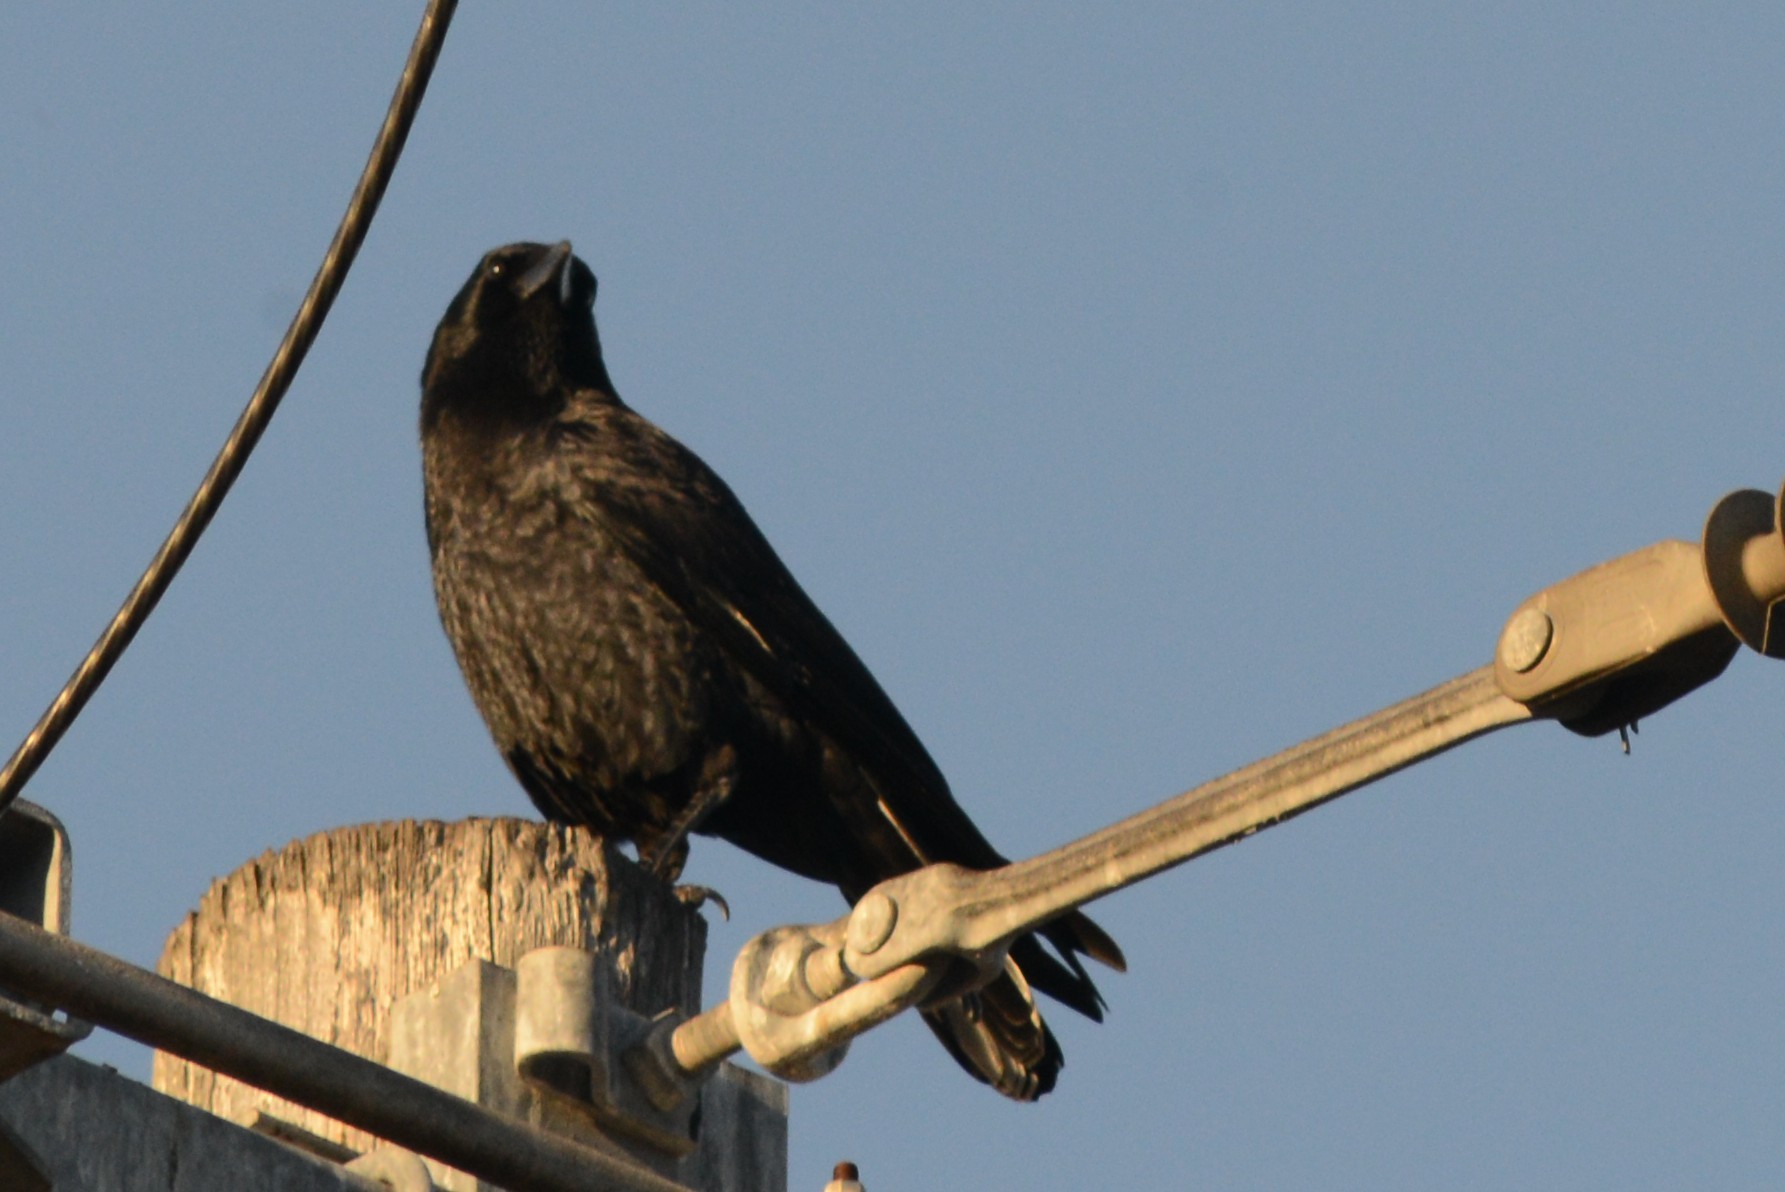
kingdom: Animalia
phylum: Chordata
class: Aves
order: Passeriformes
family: Corvidae
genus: Corvus
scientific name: Corvus brachyrhynchos
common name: American crow
